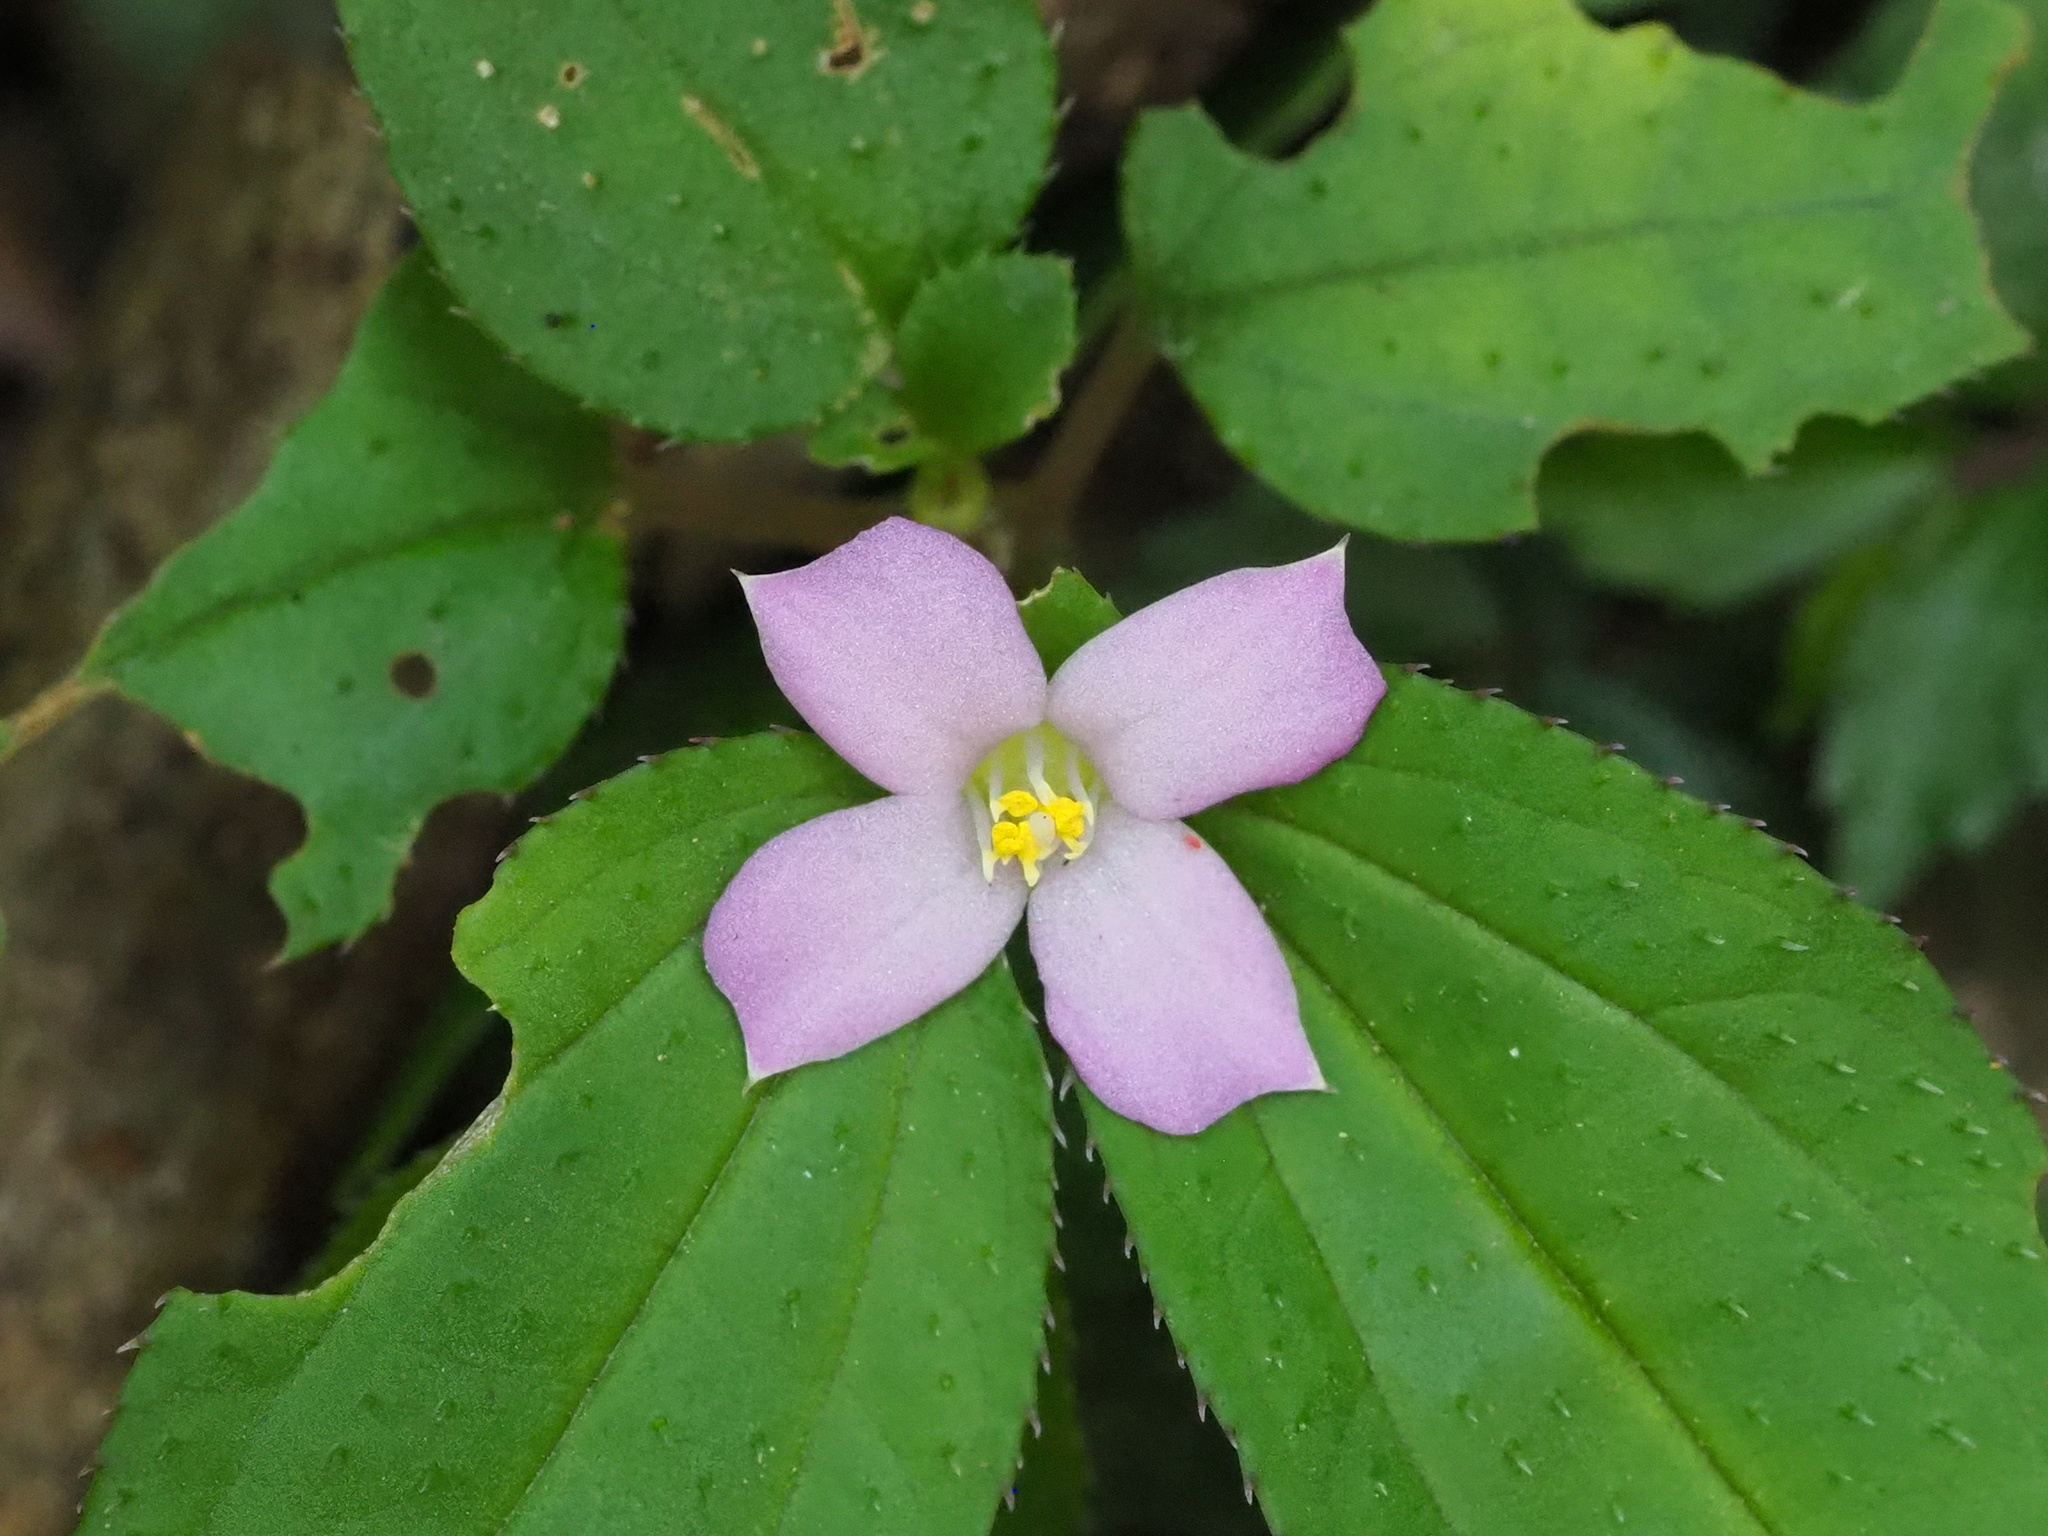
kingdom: Plantae
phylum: Tracheophyta
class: Magnoliopsida
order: Myrtales
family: Melastomataceae
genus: Sarcopyramis
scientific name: Sarcopyramis napalensis
